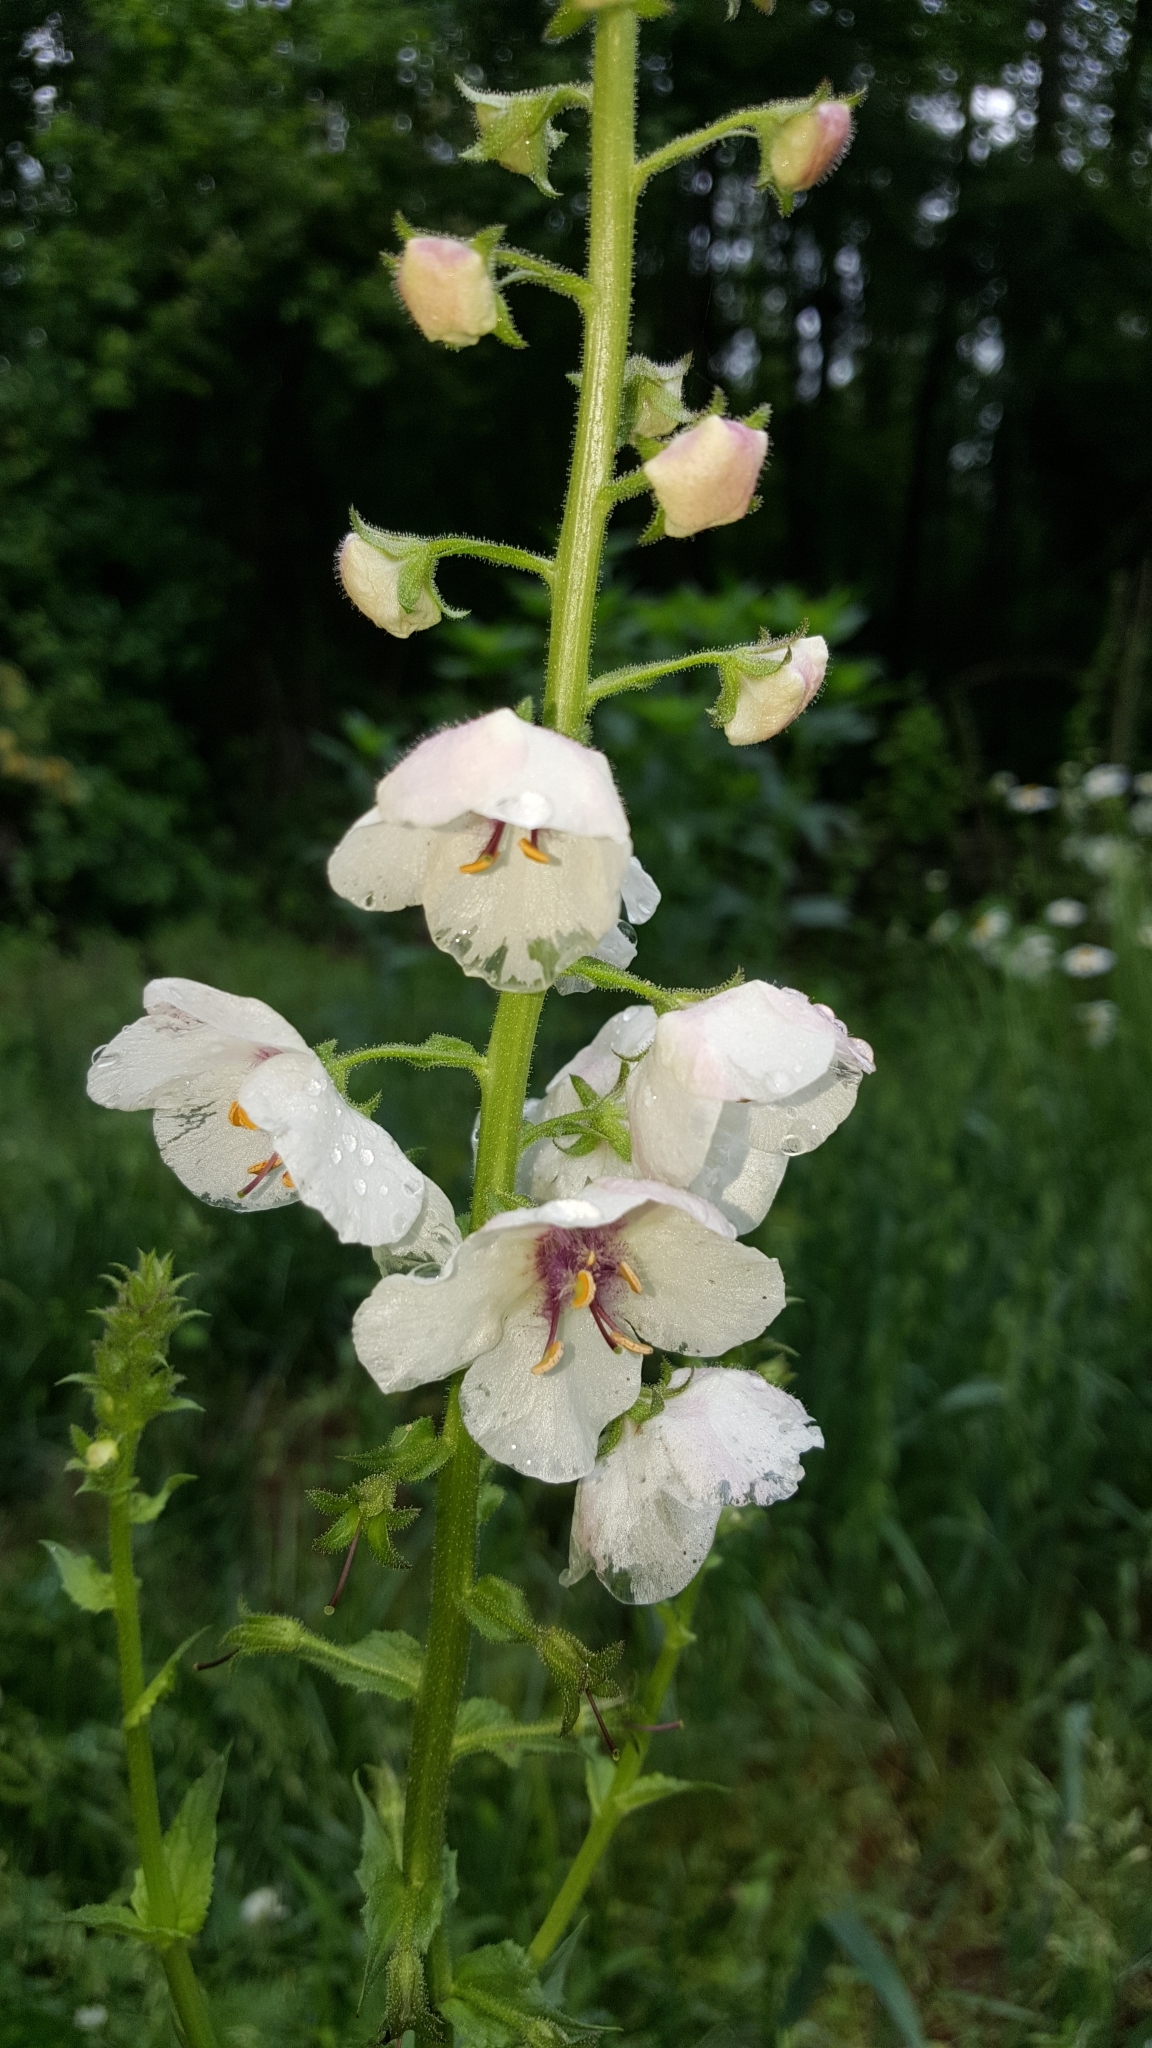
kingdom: Plantae
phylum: Tracheophyta
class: Magnoliopsida
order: Lamiales
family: Scrophulariaceae
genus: Verbascum
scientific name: Verbascum blattaria
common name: Moth mullein
